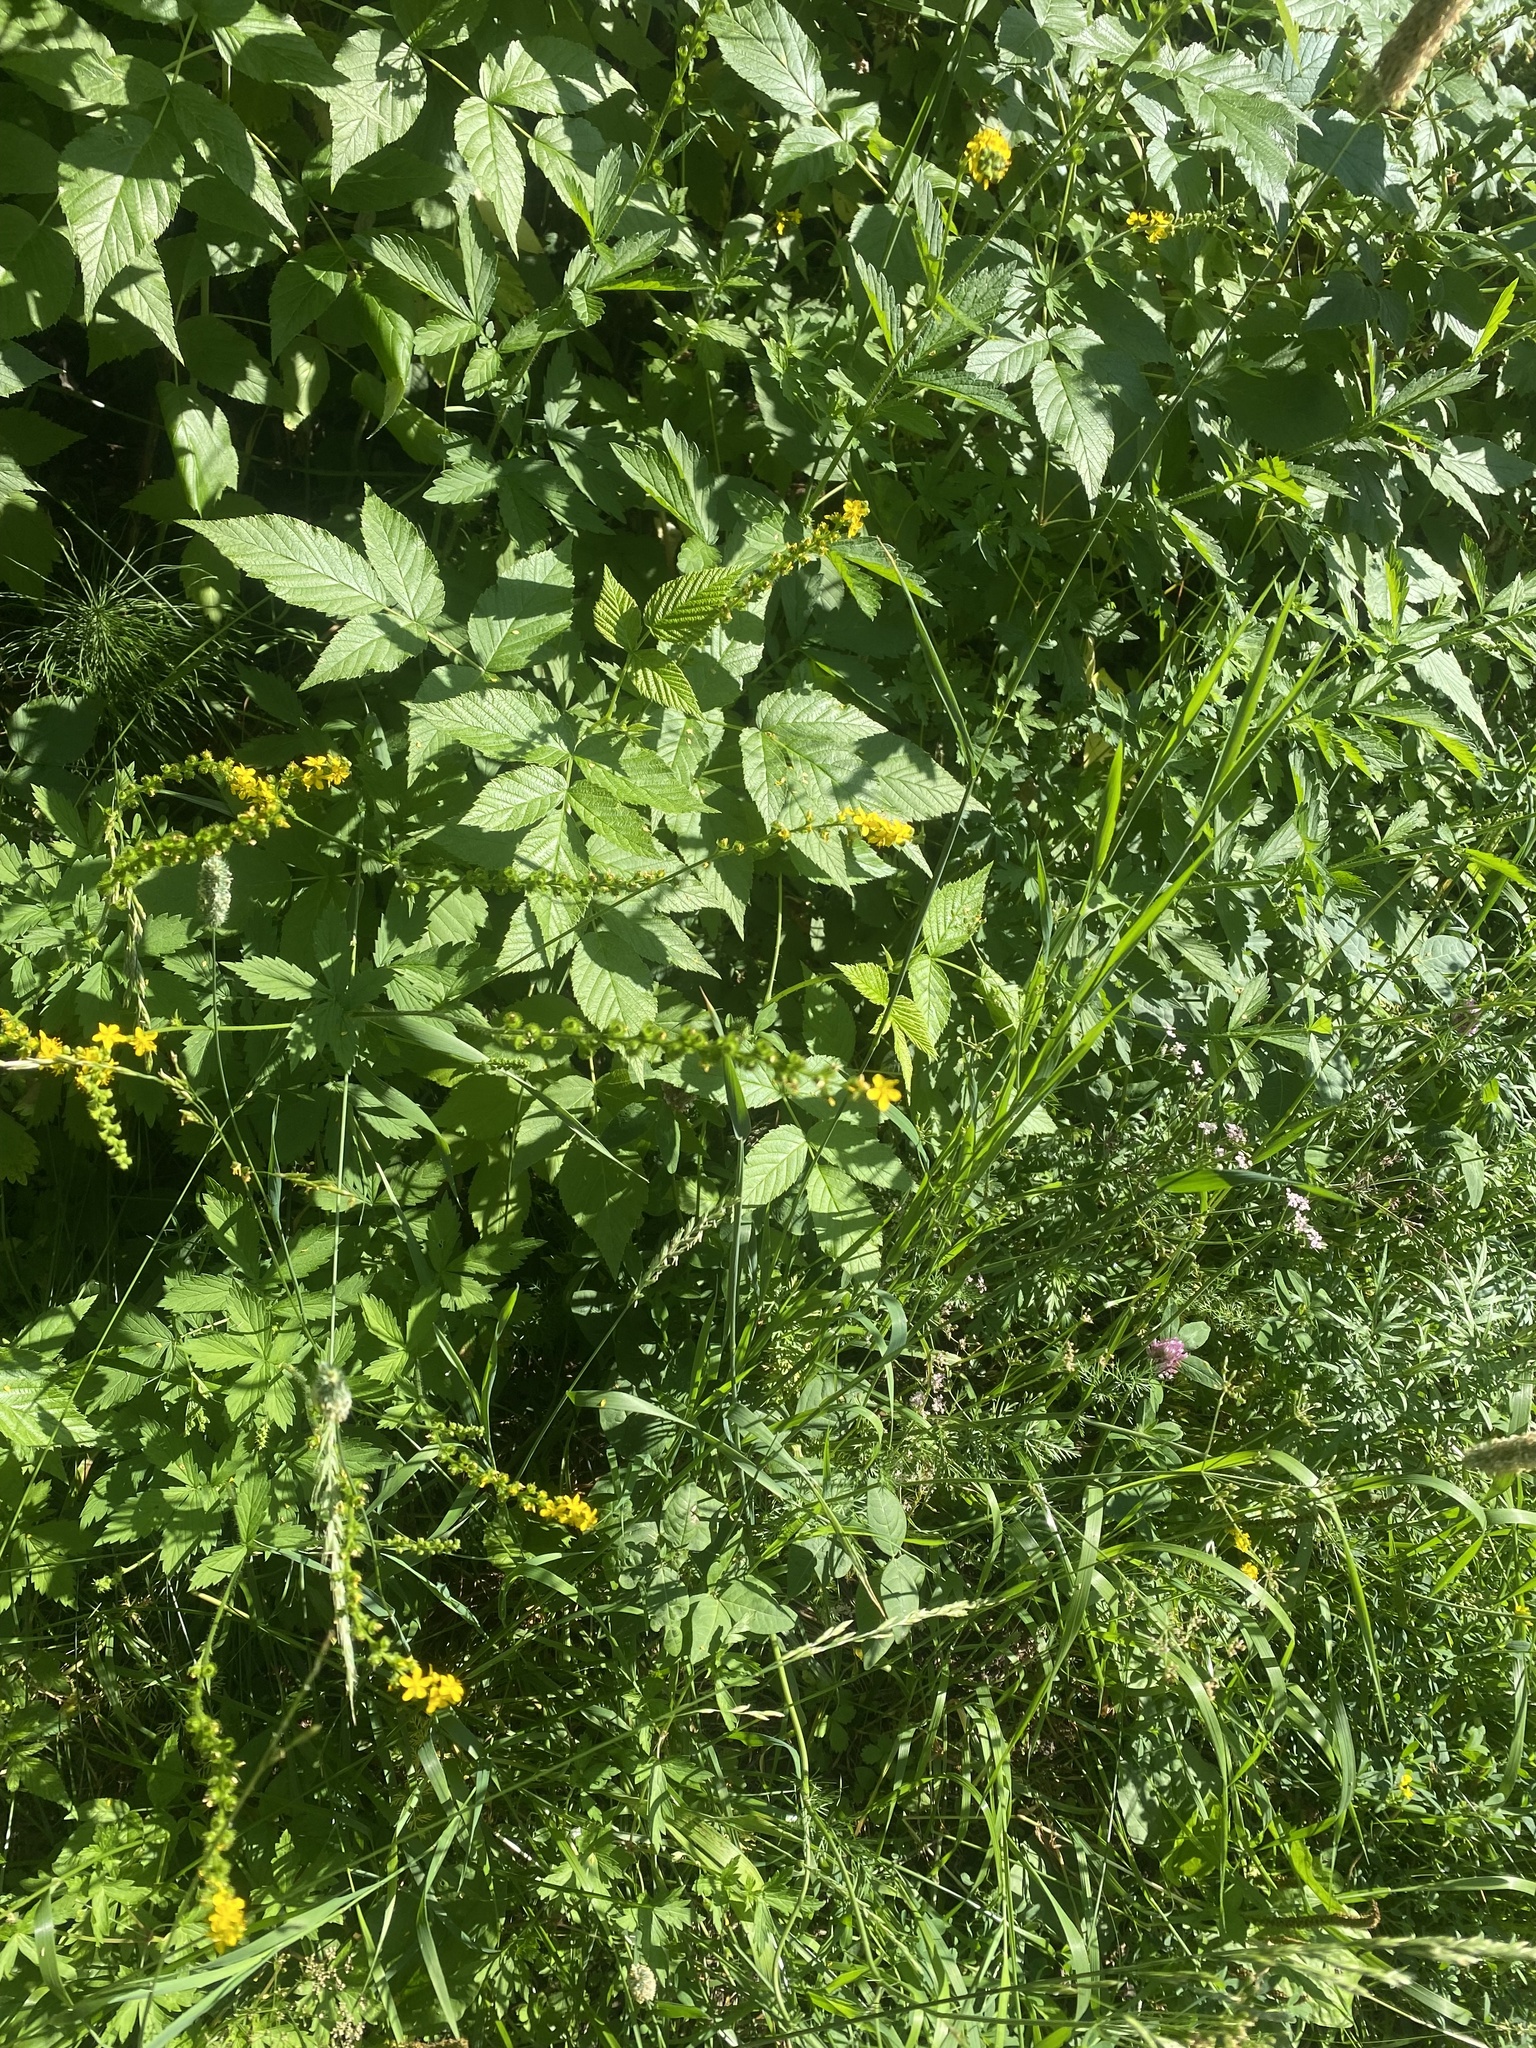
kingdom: Plantae
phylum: Tracheophyta
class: Magnoliopsida
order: Rosales
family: Rosaceae
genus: Agrimonia
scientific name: Agrimonia pilosa
